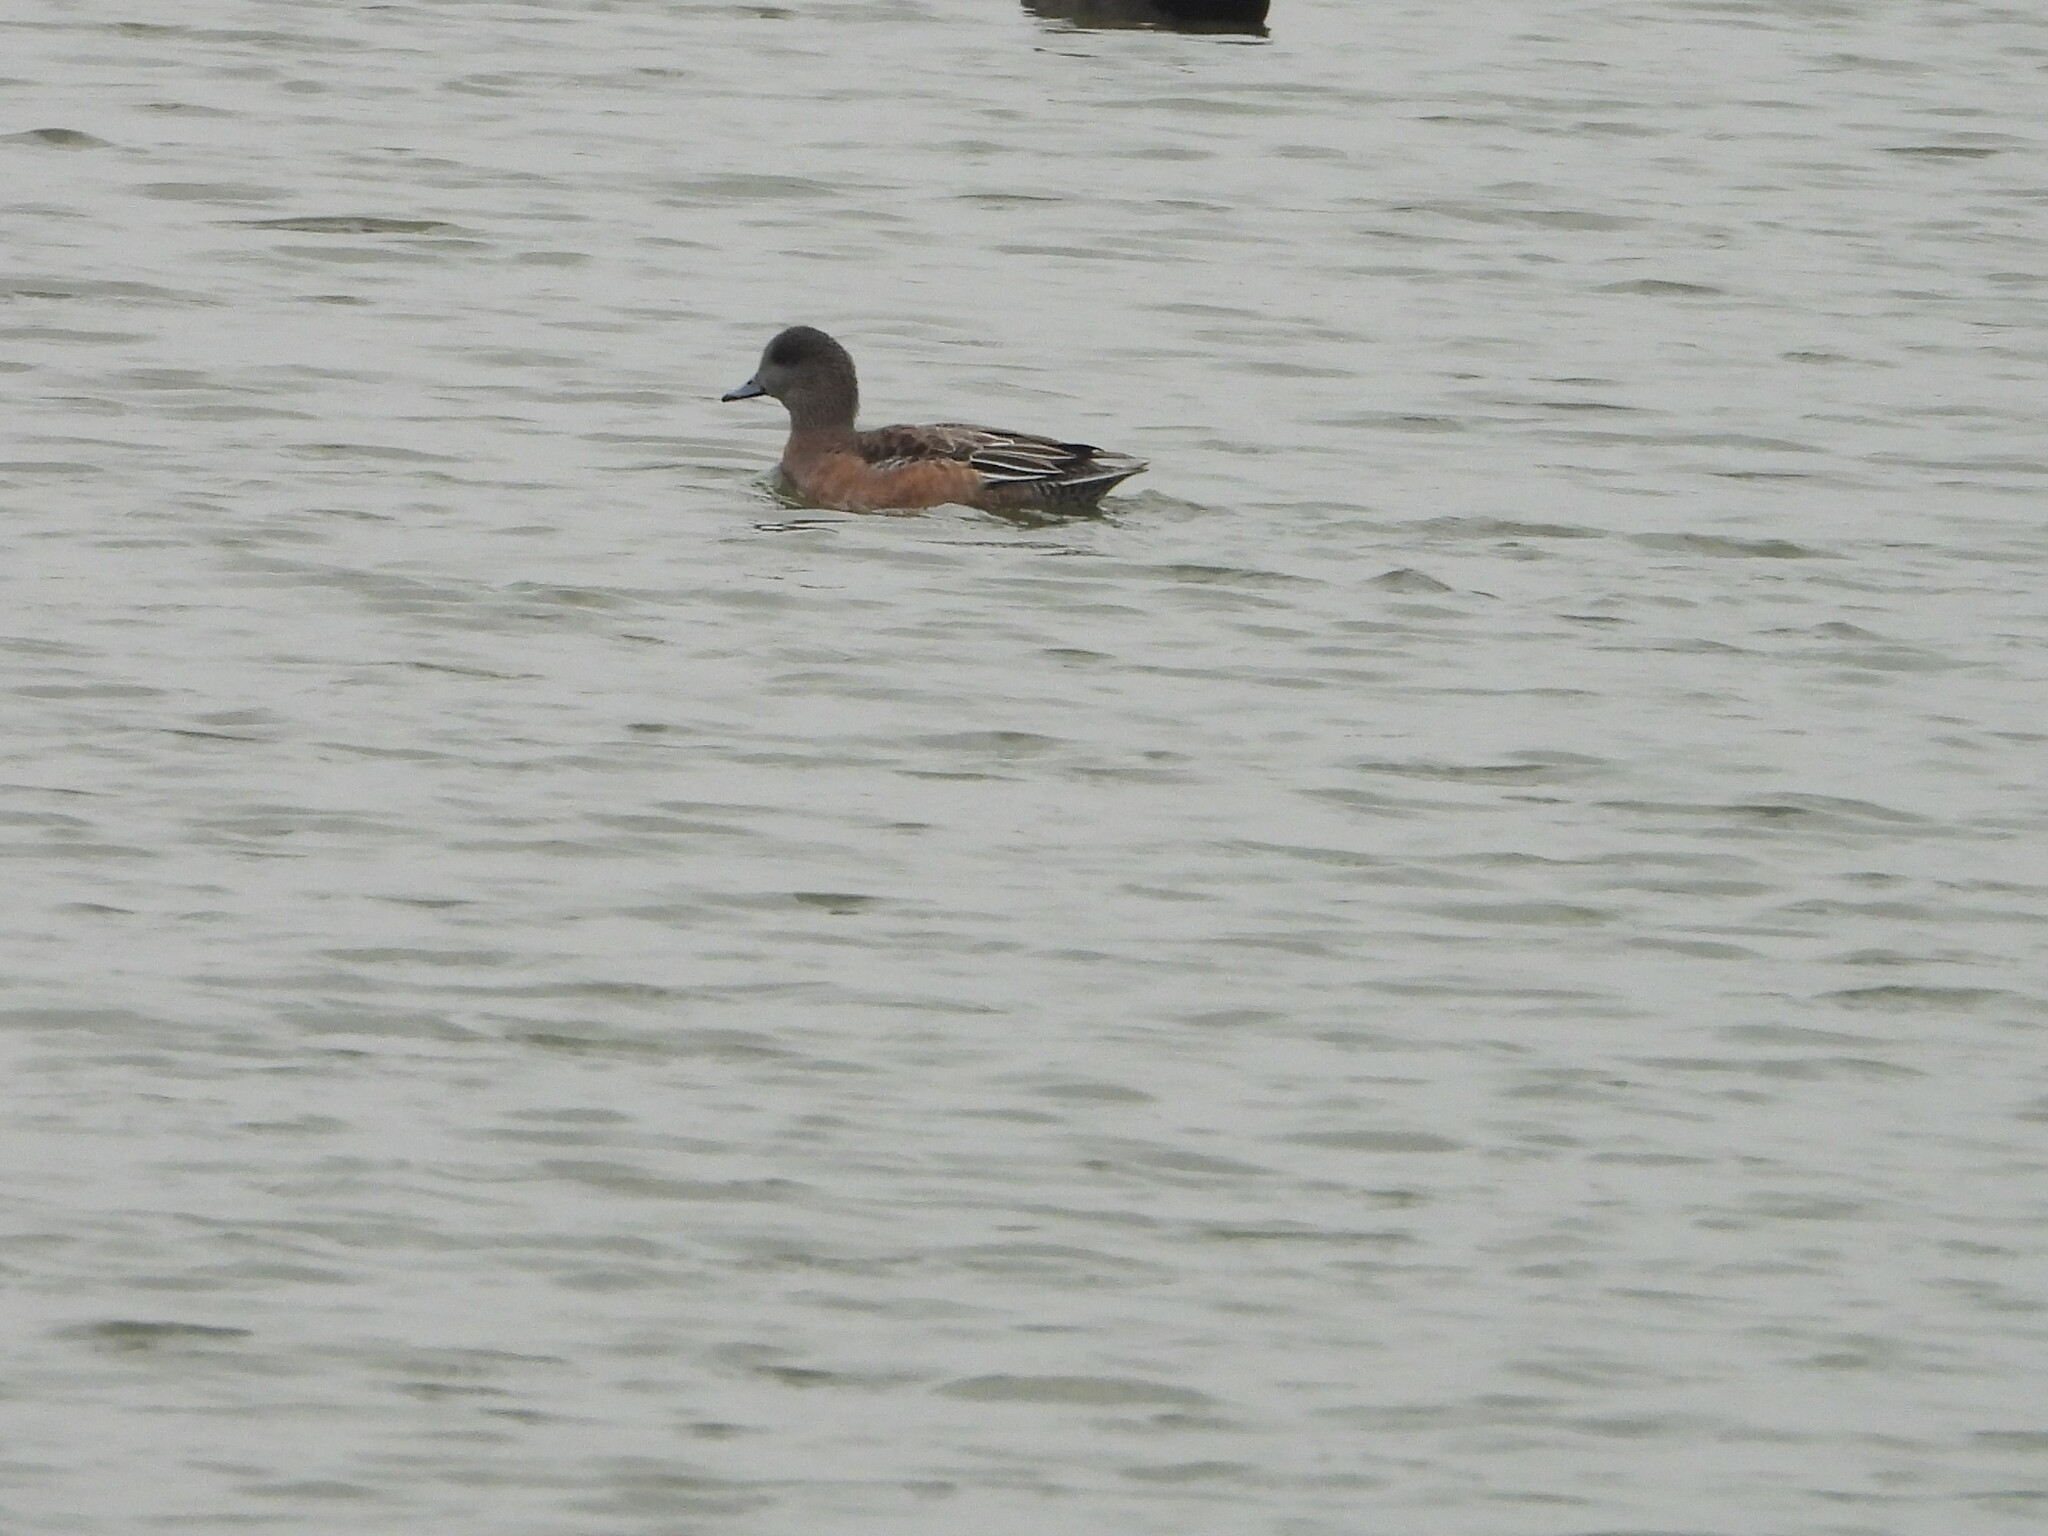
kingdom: Animalia
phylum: Chordata
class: Aves
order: Anseriformes
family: Anatidae
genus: Mareca
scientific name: Mareca americana
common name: American wigeon
